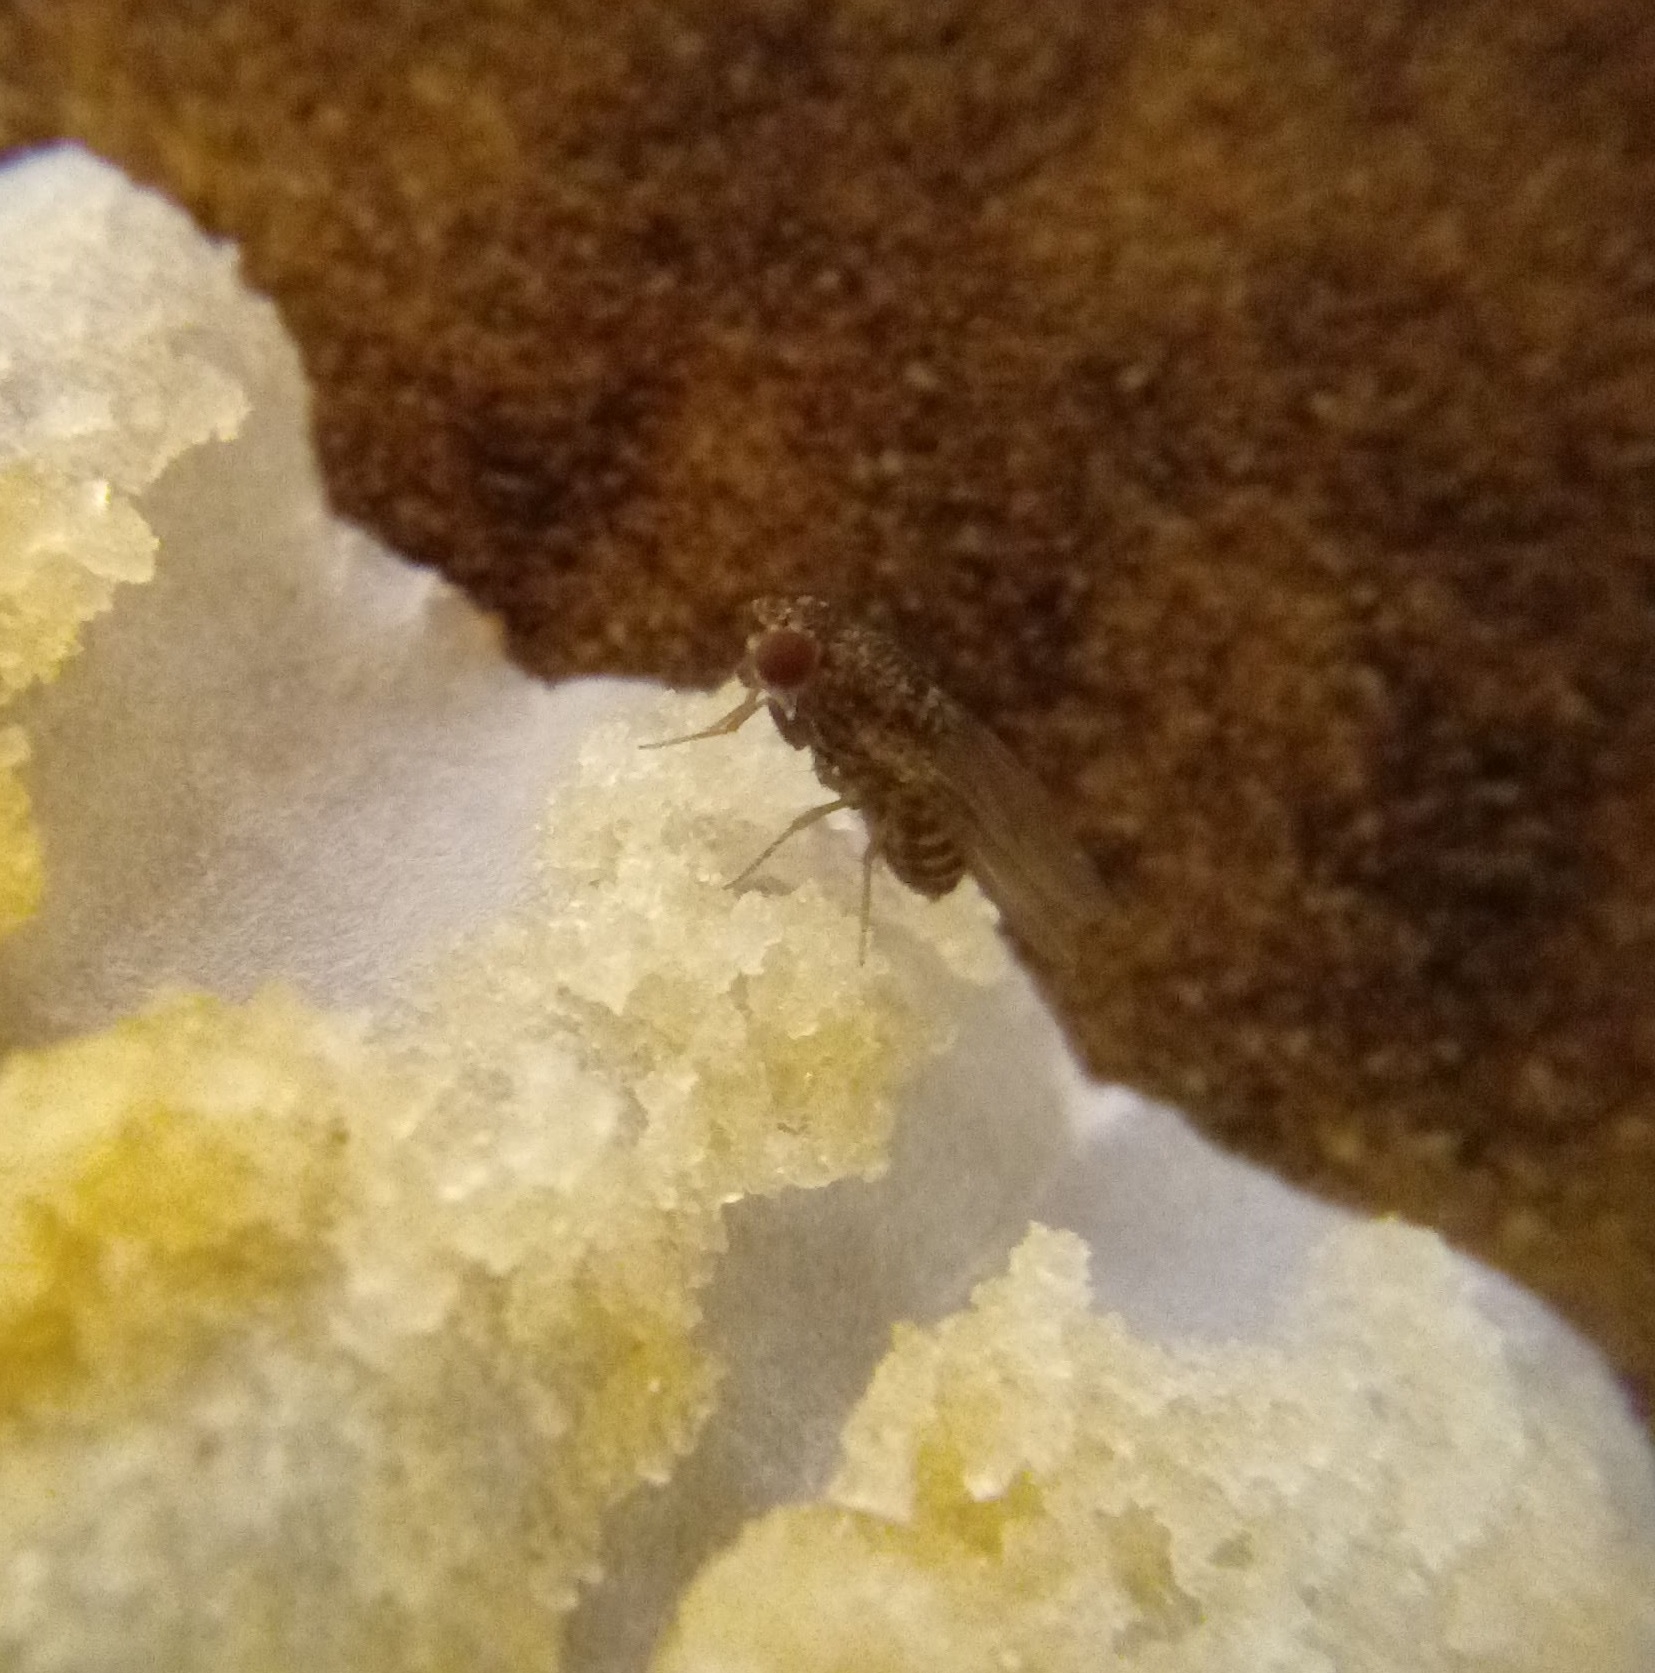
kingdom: Animalia
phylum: Arthropoda
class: Insecta
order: Diptera
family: Drosophilidae
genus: Drosophila
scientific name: Drosophila repleta
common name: Pomace fly
